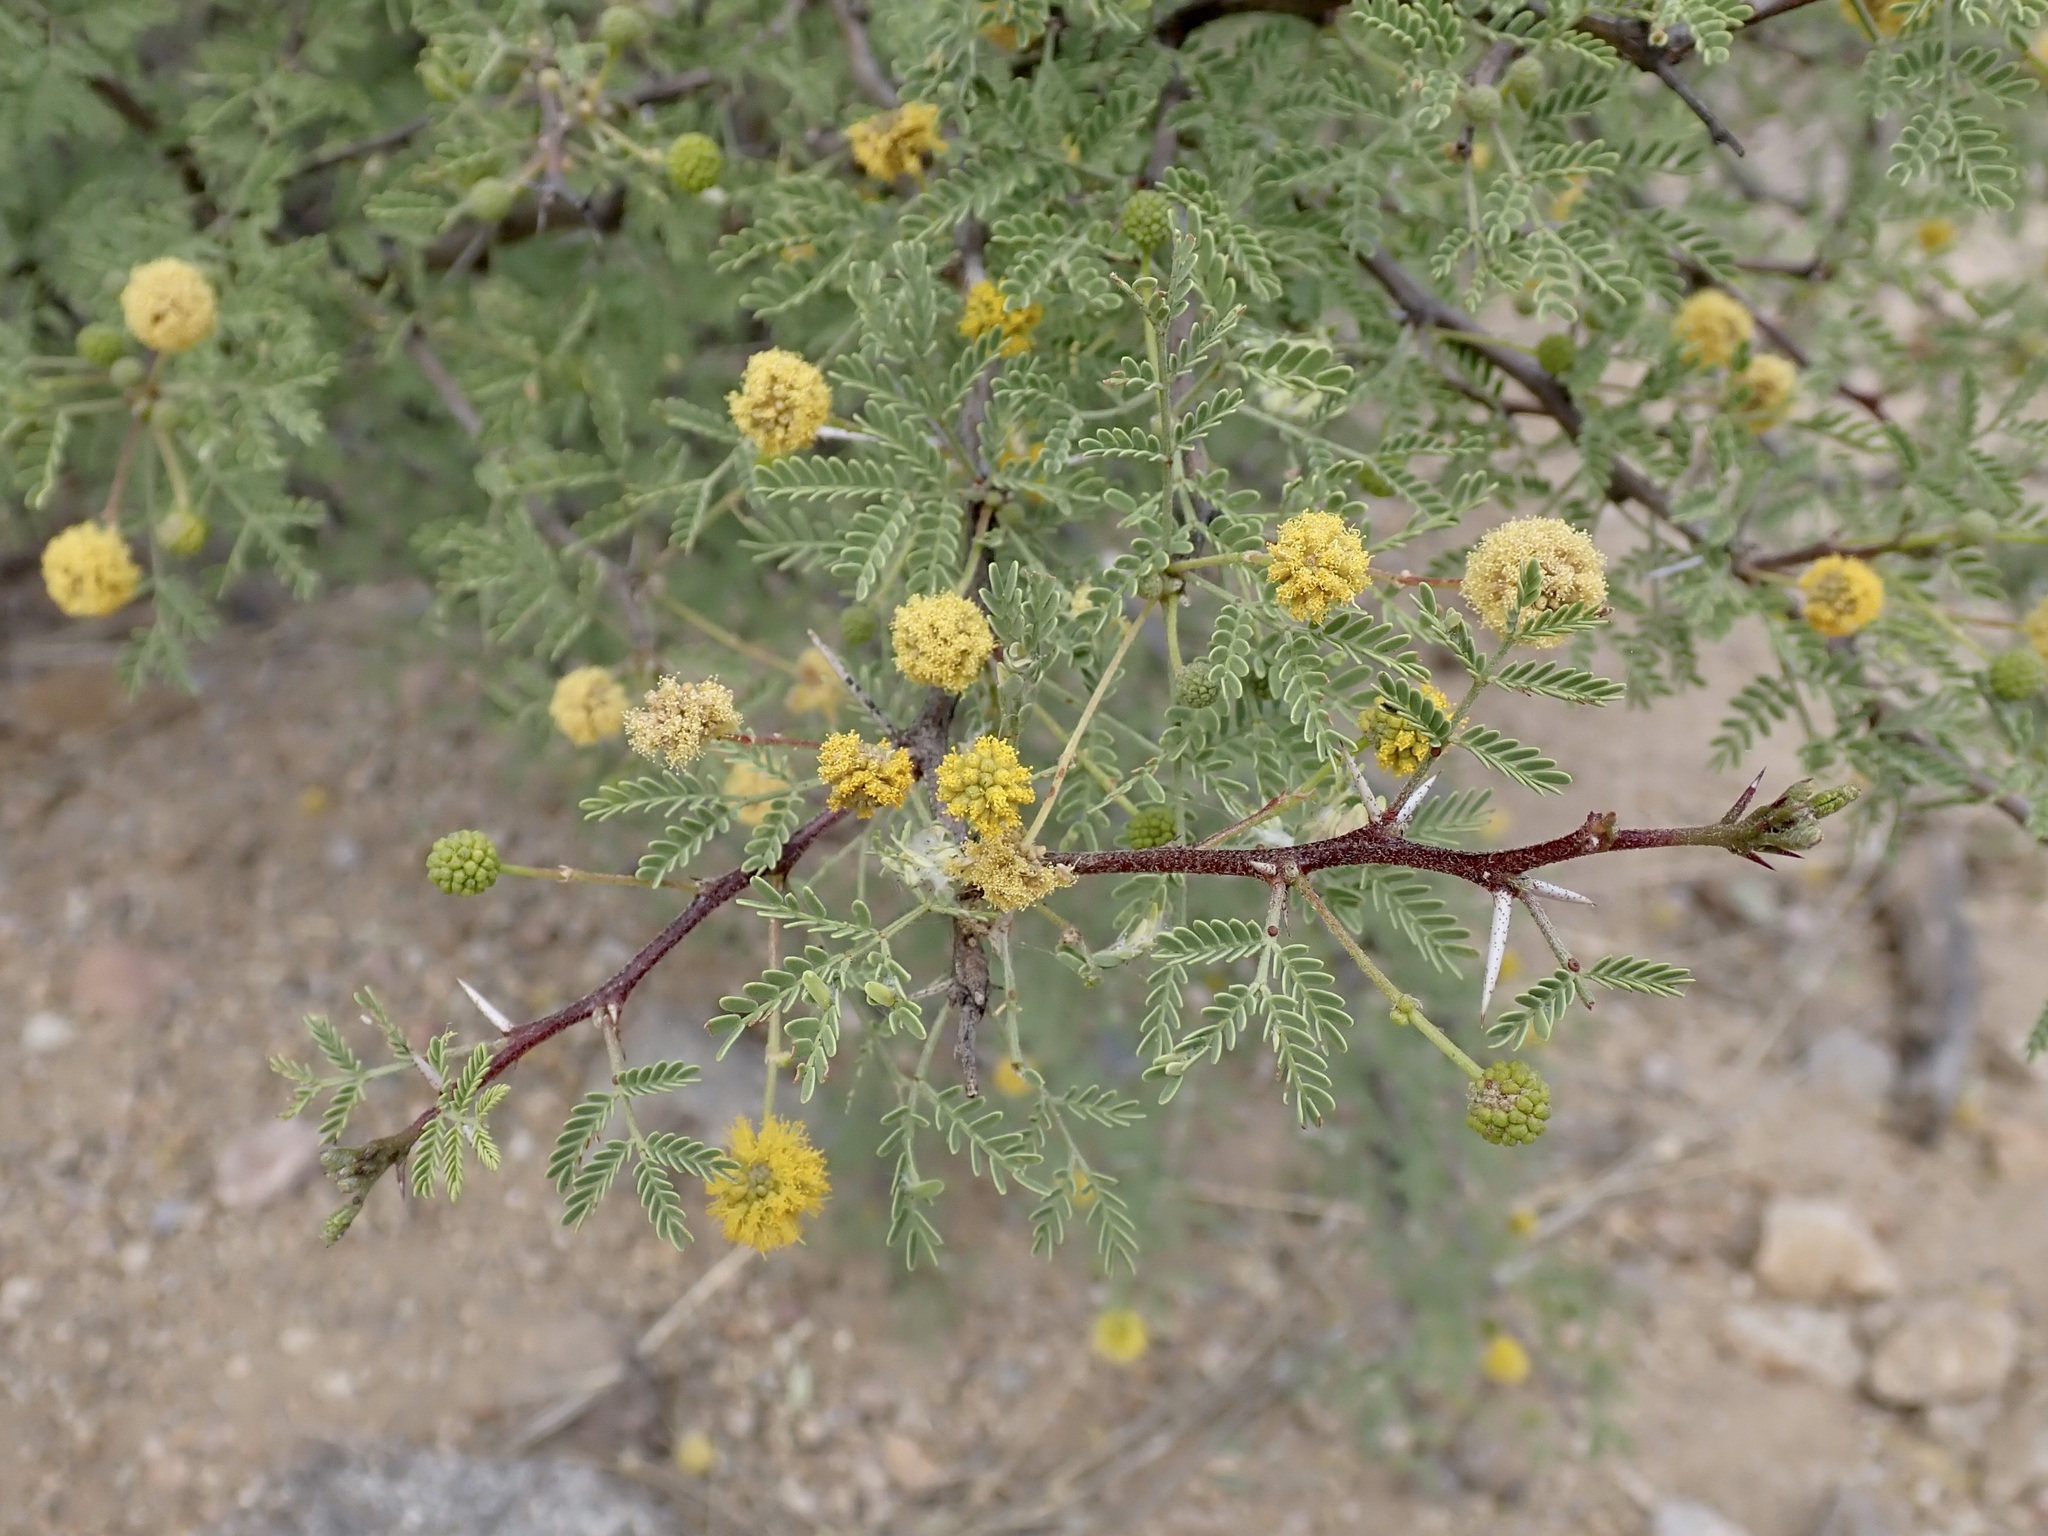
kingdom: Plantae
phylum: Tracheophyta
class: Magnoliopsida
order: Fabales
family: Fabaceae
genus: Vachellia
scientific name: Vachellia constricta
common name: Mescat acacia
